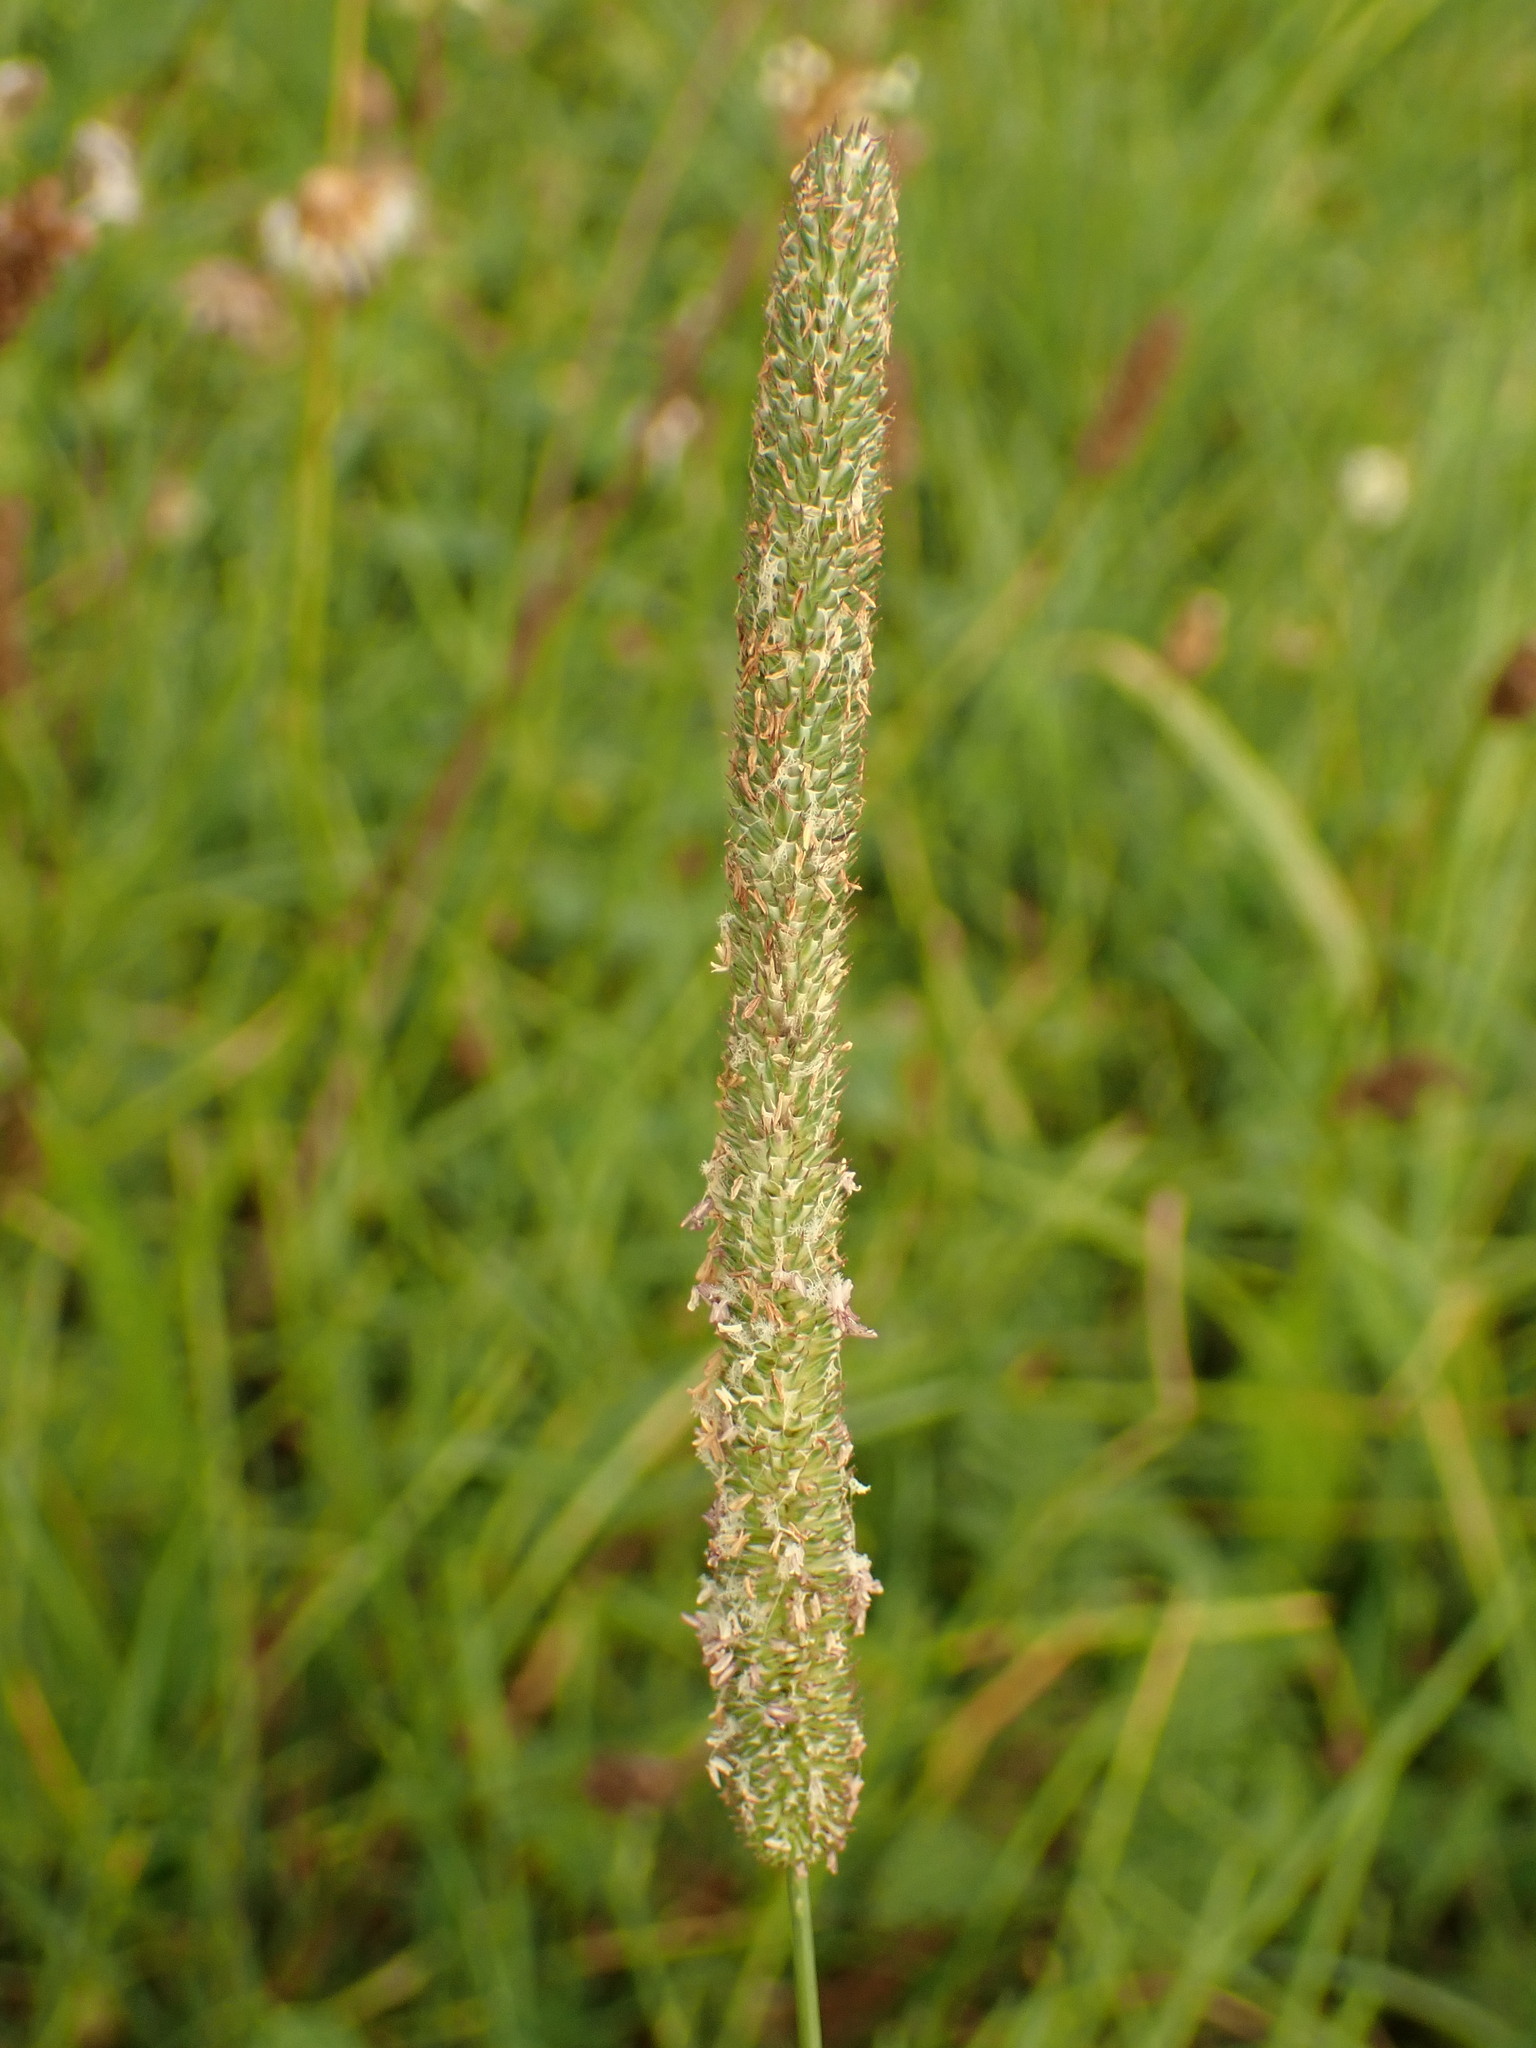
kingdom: Plantae
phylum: Tracheophyta
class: Liliopsida
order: Poales
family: Poaceae
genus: Phleum
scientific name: Phleum pratense
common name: Timothy grass
